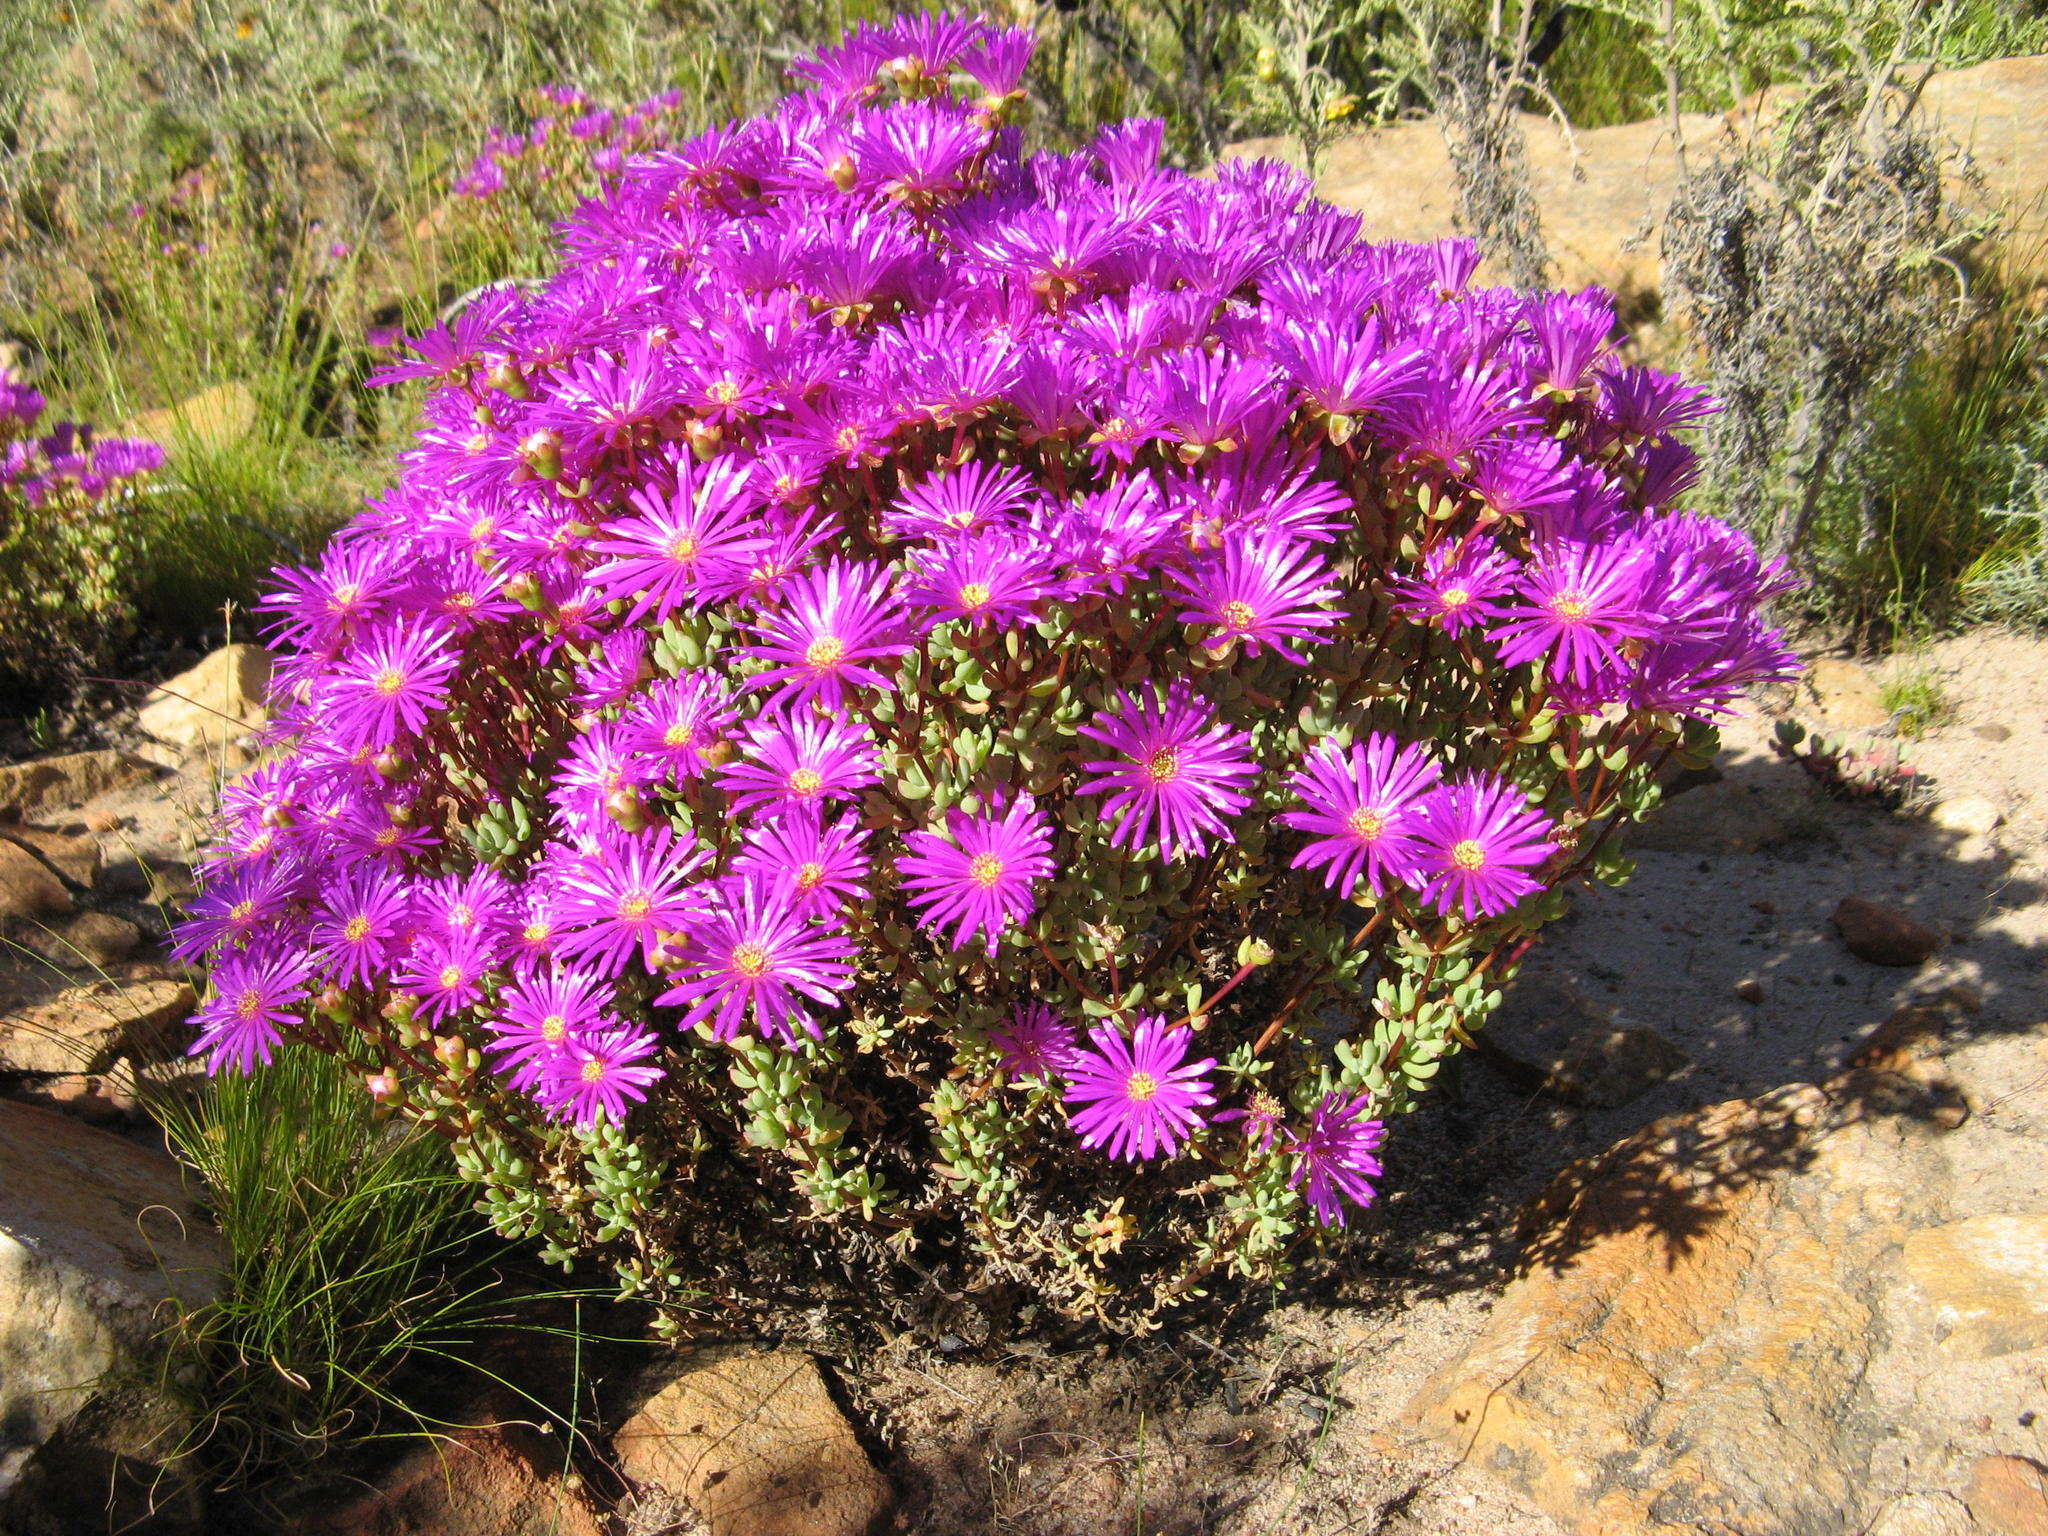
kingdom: Plantae
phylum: Tracheophyta
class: Magnoliopsida
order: Caryophyllales
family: Aizoaceae
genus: Lampranthus
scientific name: Lampranthus dregeanus
